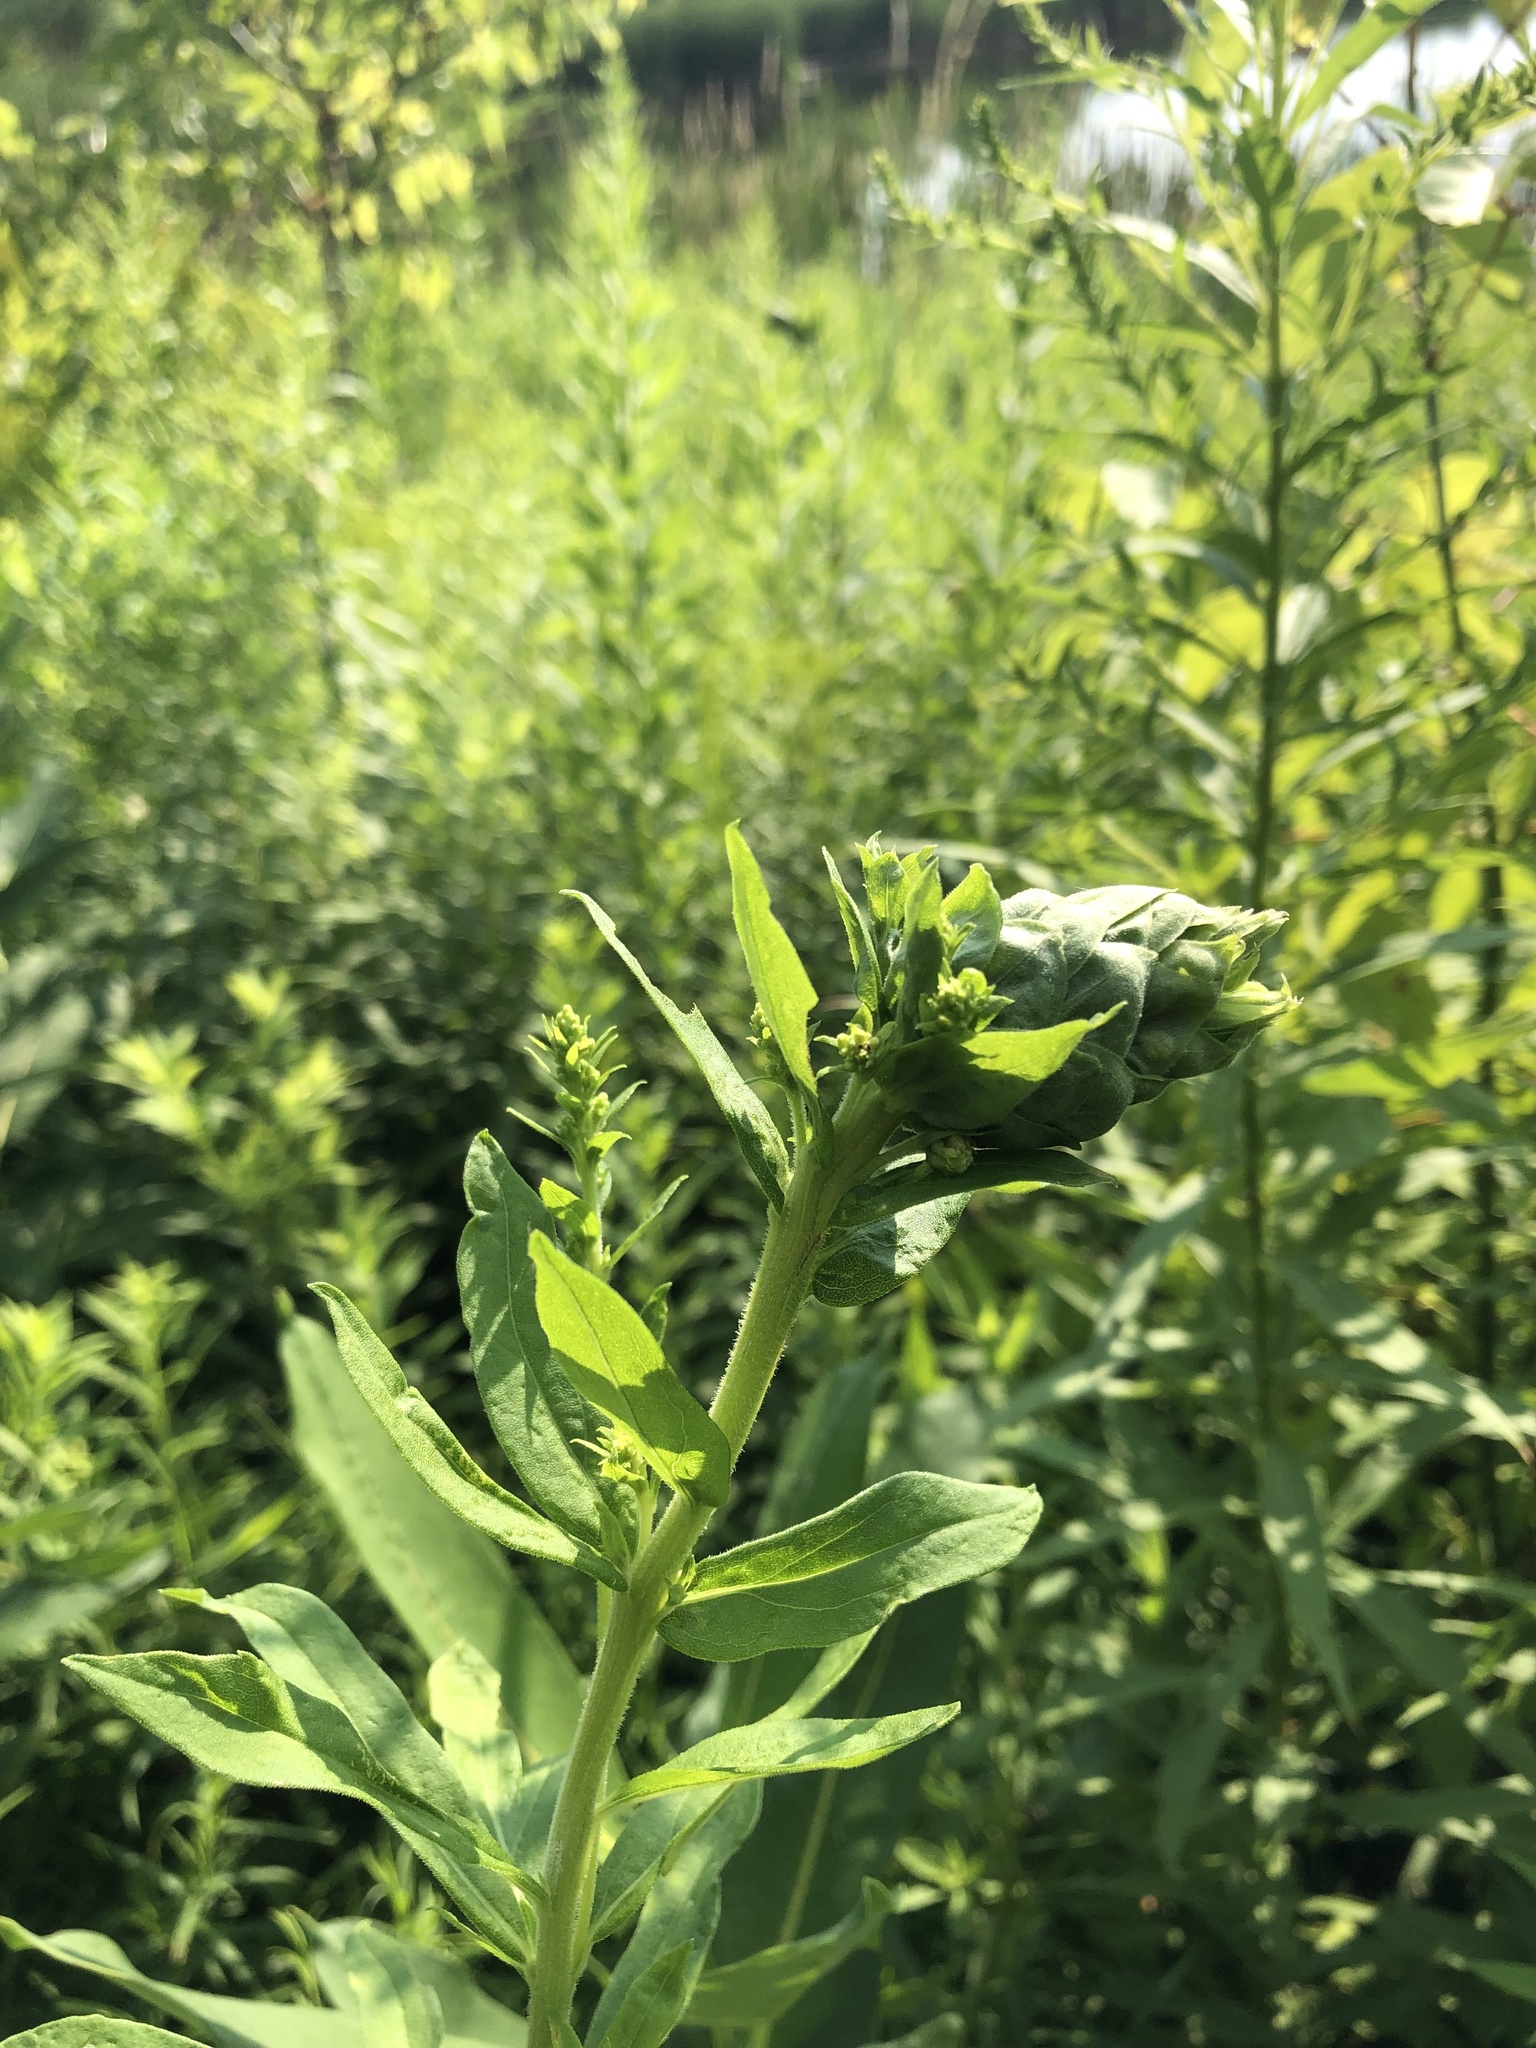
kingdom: Animalia
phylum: Arthropoda
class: Insecta
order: Diptera
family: Cecidomyiidae
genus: Rhopalomyia
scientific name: Rhopalomyia solidaginis
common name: Goldenrod bunch gall midge
